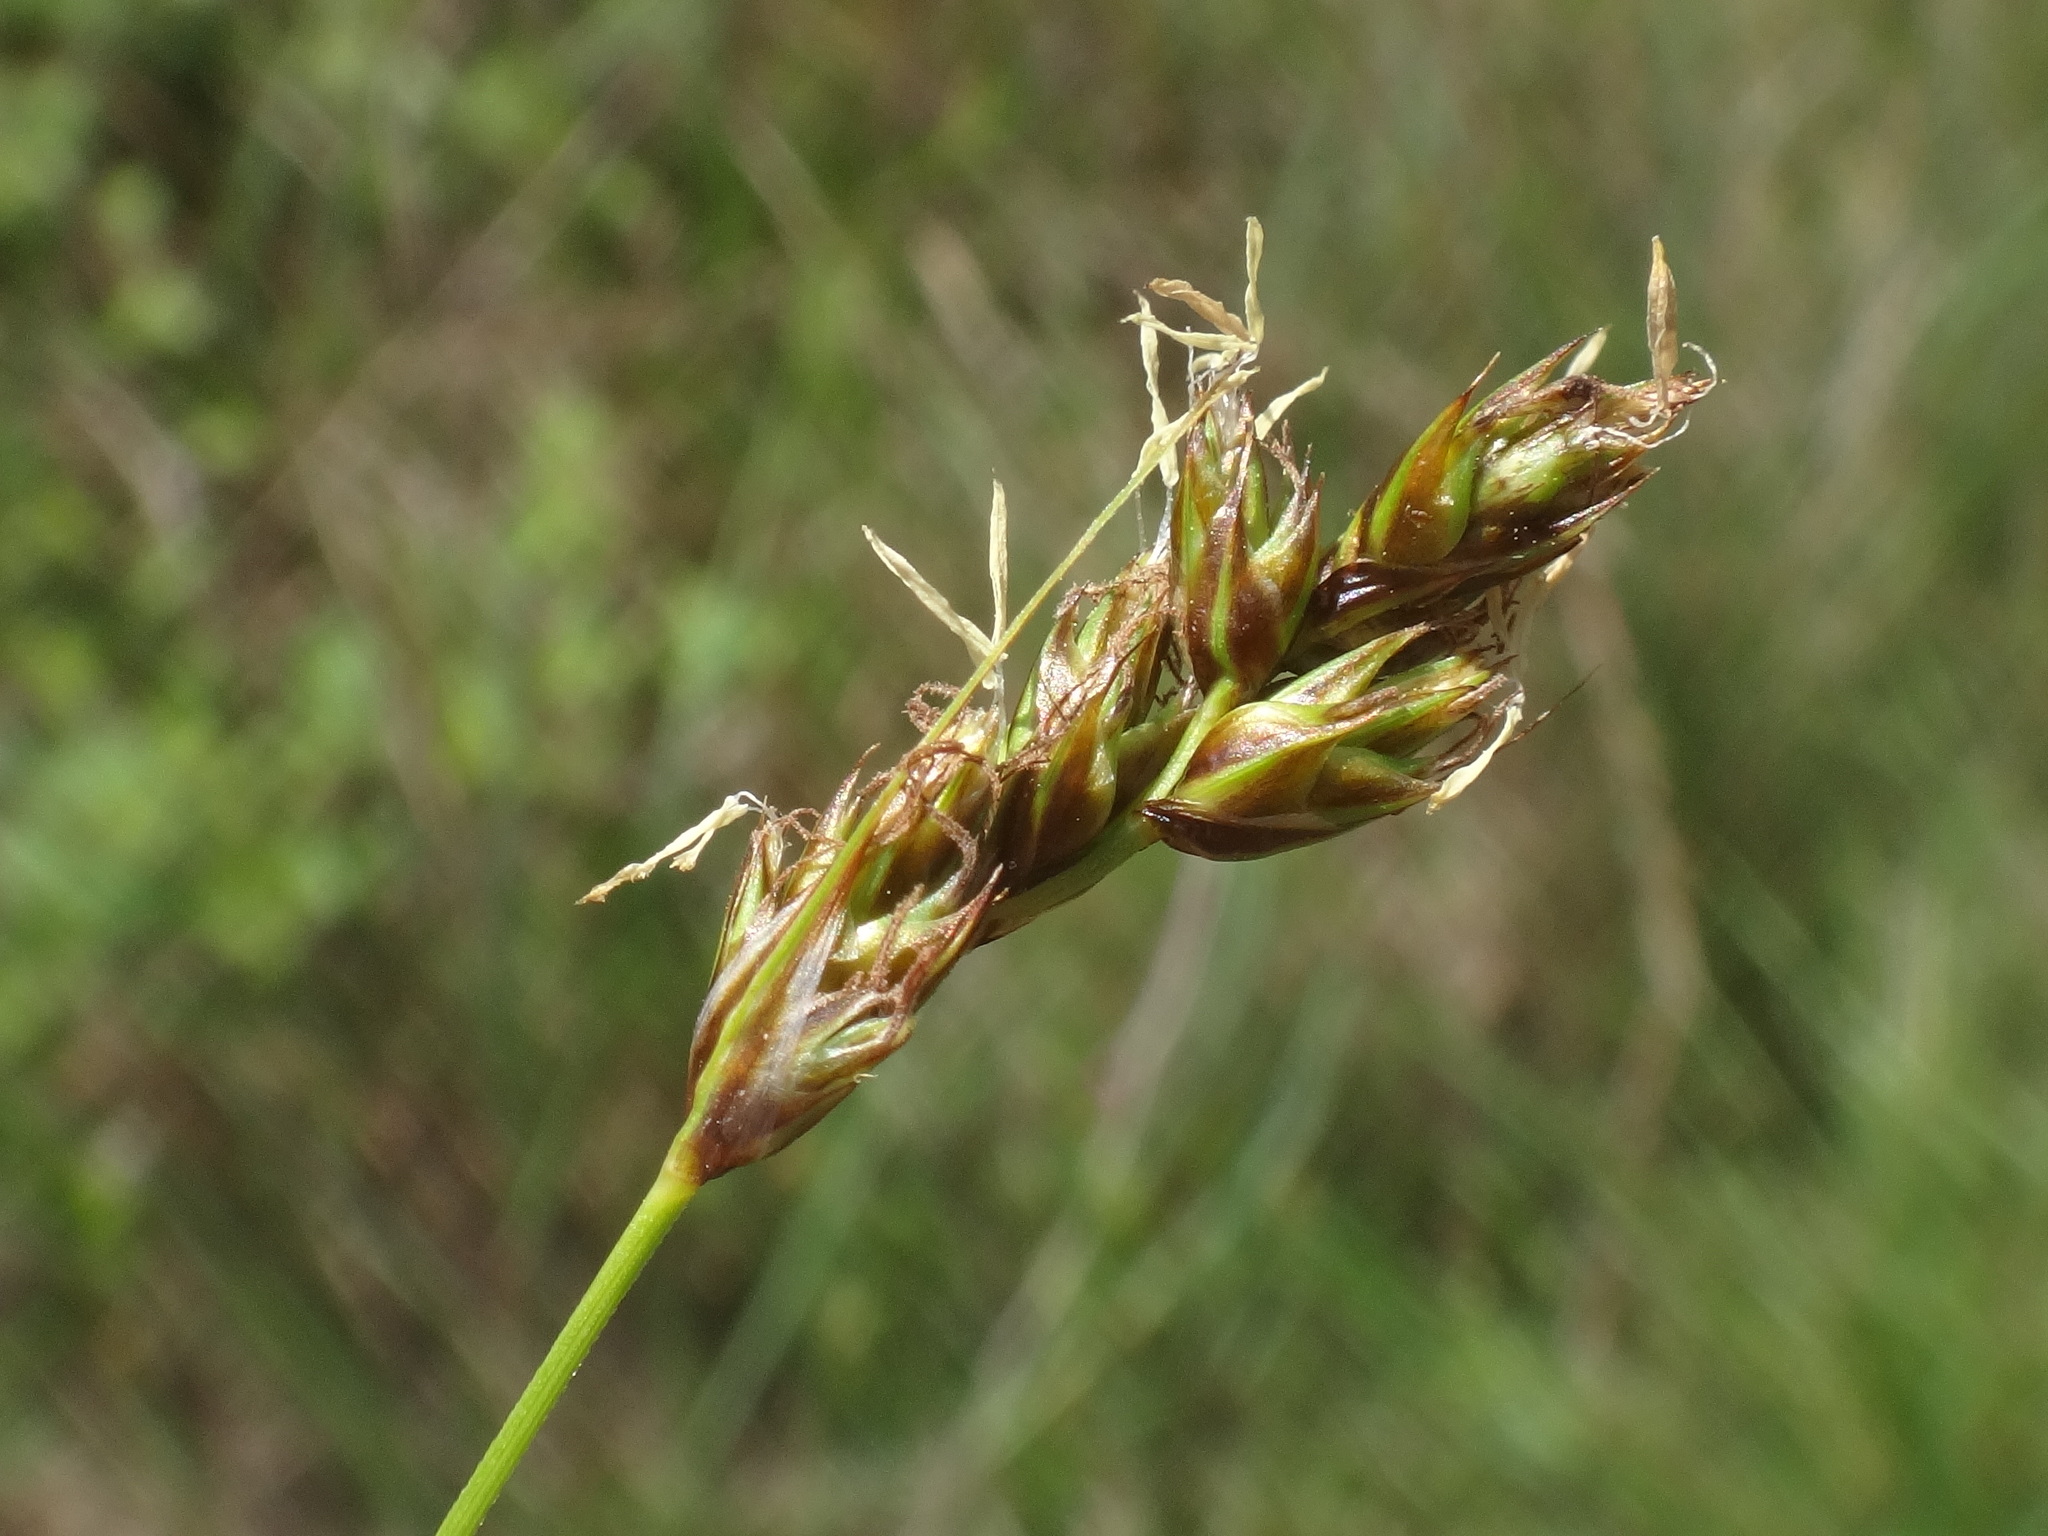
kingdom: Plantae
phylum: Tracheophyta
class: Liliopsida
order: Poales
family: Cyperaceae
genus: Carex
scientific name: Carex divisa
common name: Divided sedge
